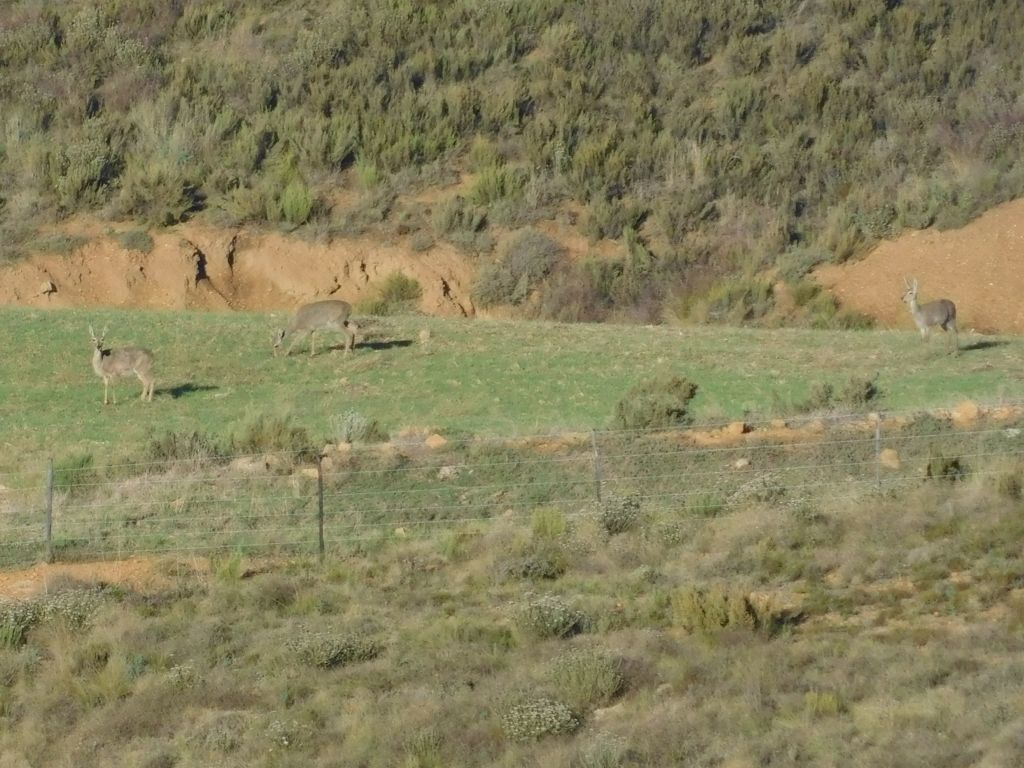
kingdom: Animalia
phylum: Chordata
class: Mammalia
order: Artiodactyla
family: Bovidae
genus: Pelea
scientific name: Pelea capreolus
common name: Common rhebok
